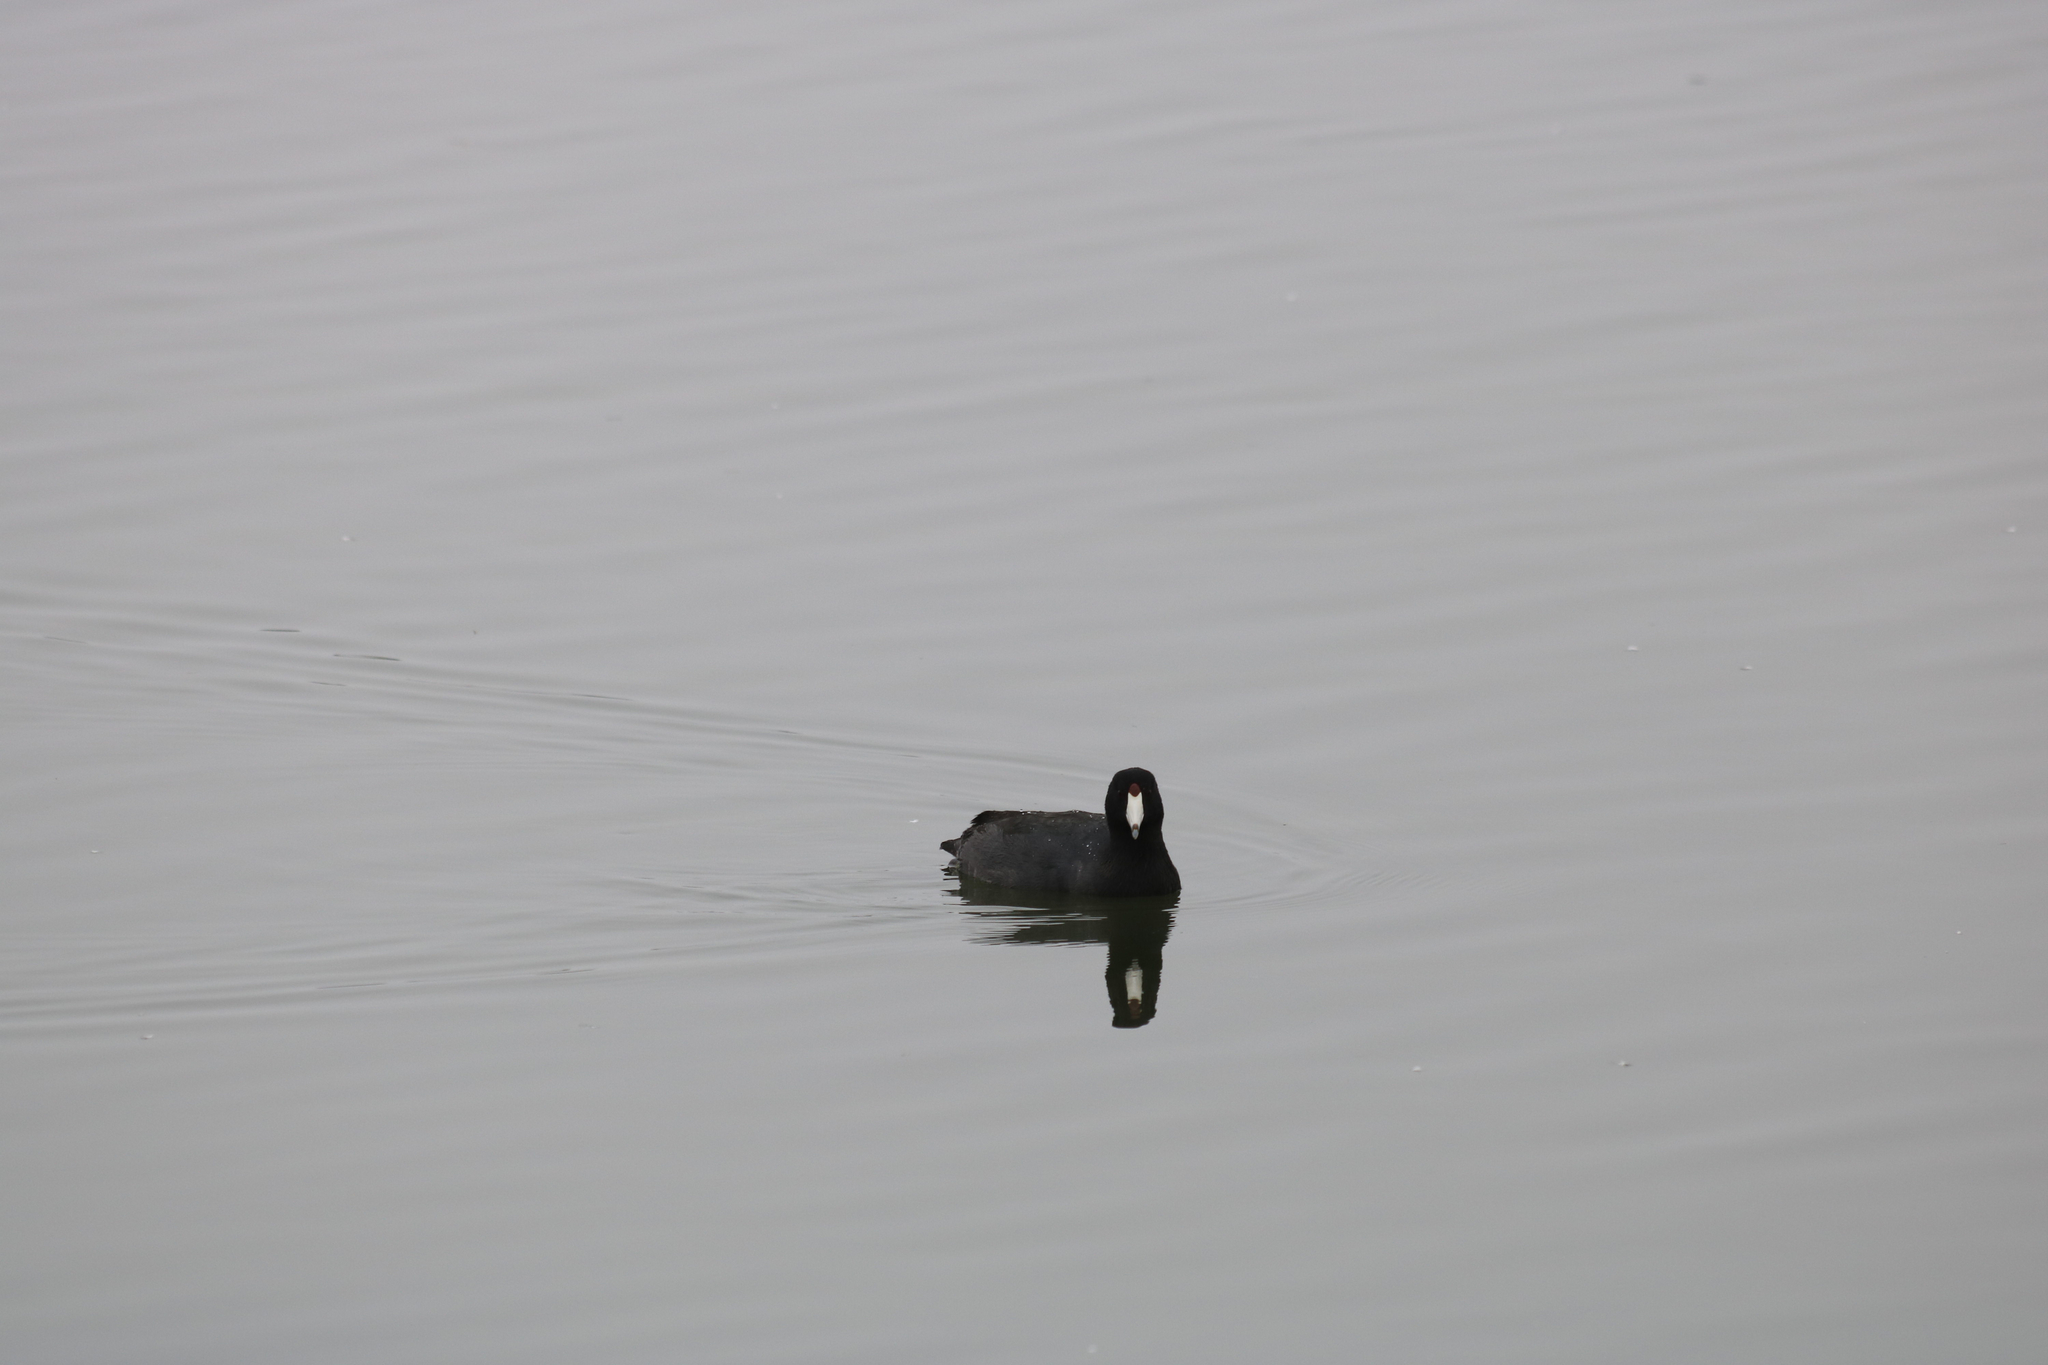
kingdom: Animalia
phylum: Chordata
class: Aves
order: Gruiformes
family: Rallidae
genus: Fulica
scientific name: Fulica americana
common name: American coot
